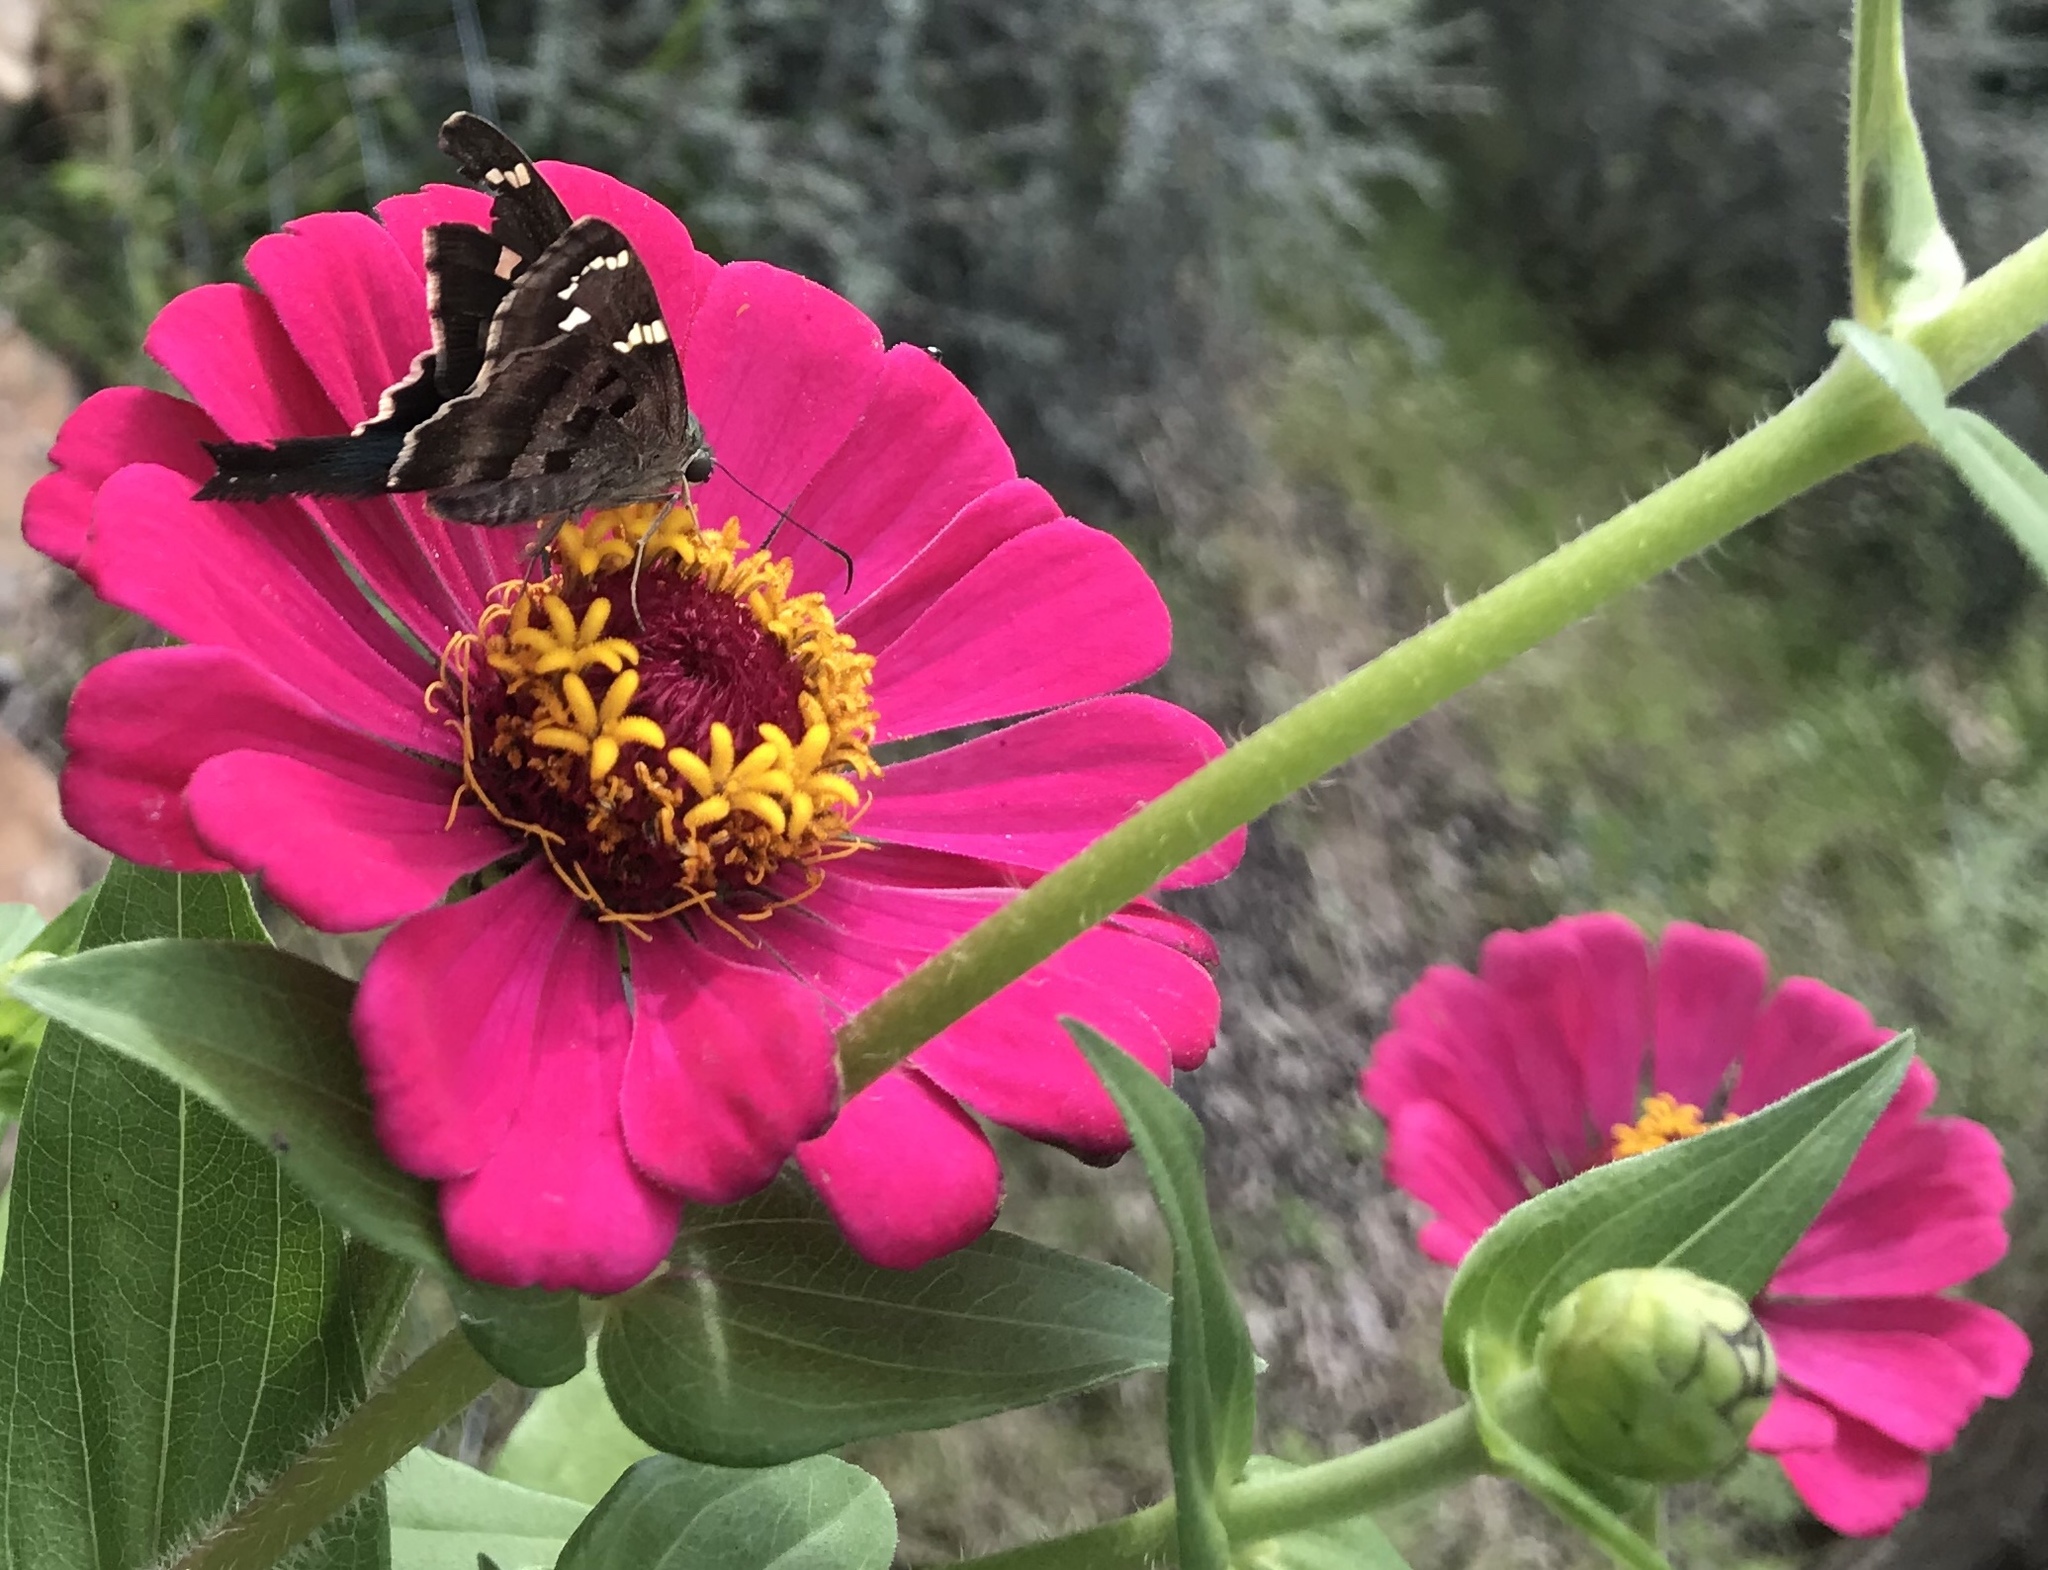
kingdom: Animalia
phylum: Arthropoda
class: Insecta
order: Lepidoptera
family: Hesperiidae
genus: Urbanus
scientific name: Urbanus proteus
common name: Long-tailed skipper
